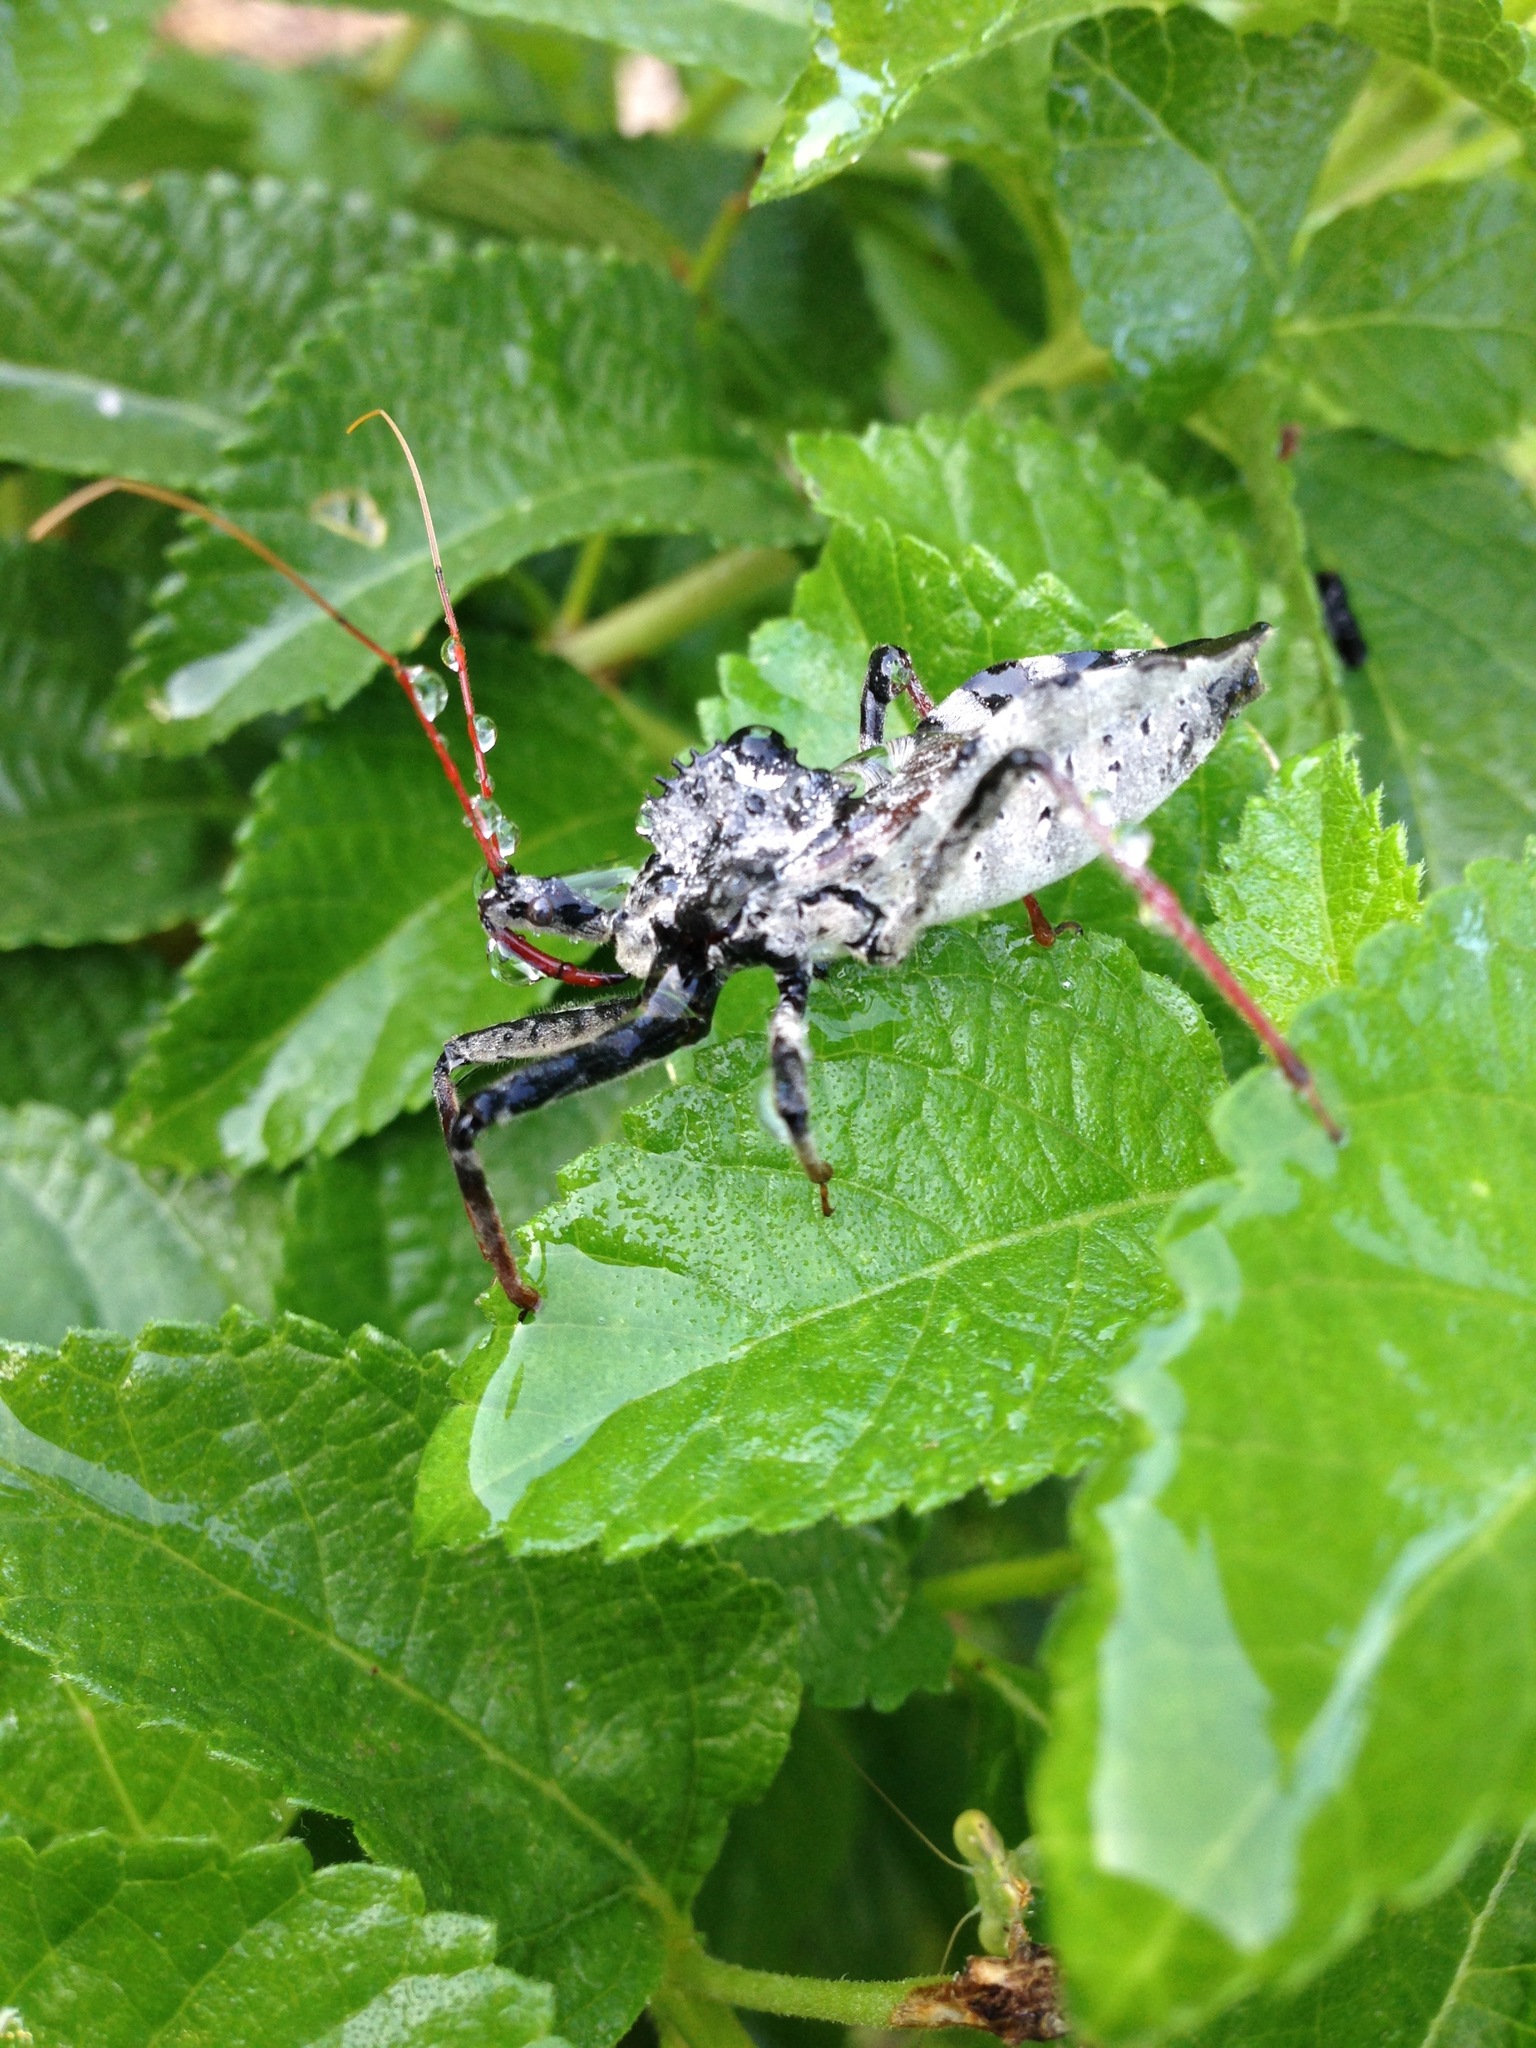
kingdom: Animalia
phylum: Arthropoda
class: Insecta
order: Hemiptera
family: Reduviidae
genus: Arilus
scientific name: Arilus cristatus
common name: North american wheel bug
